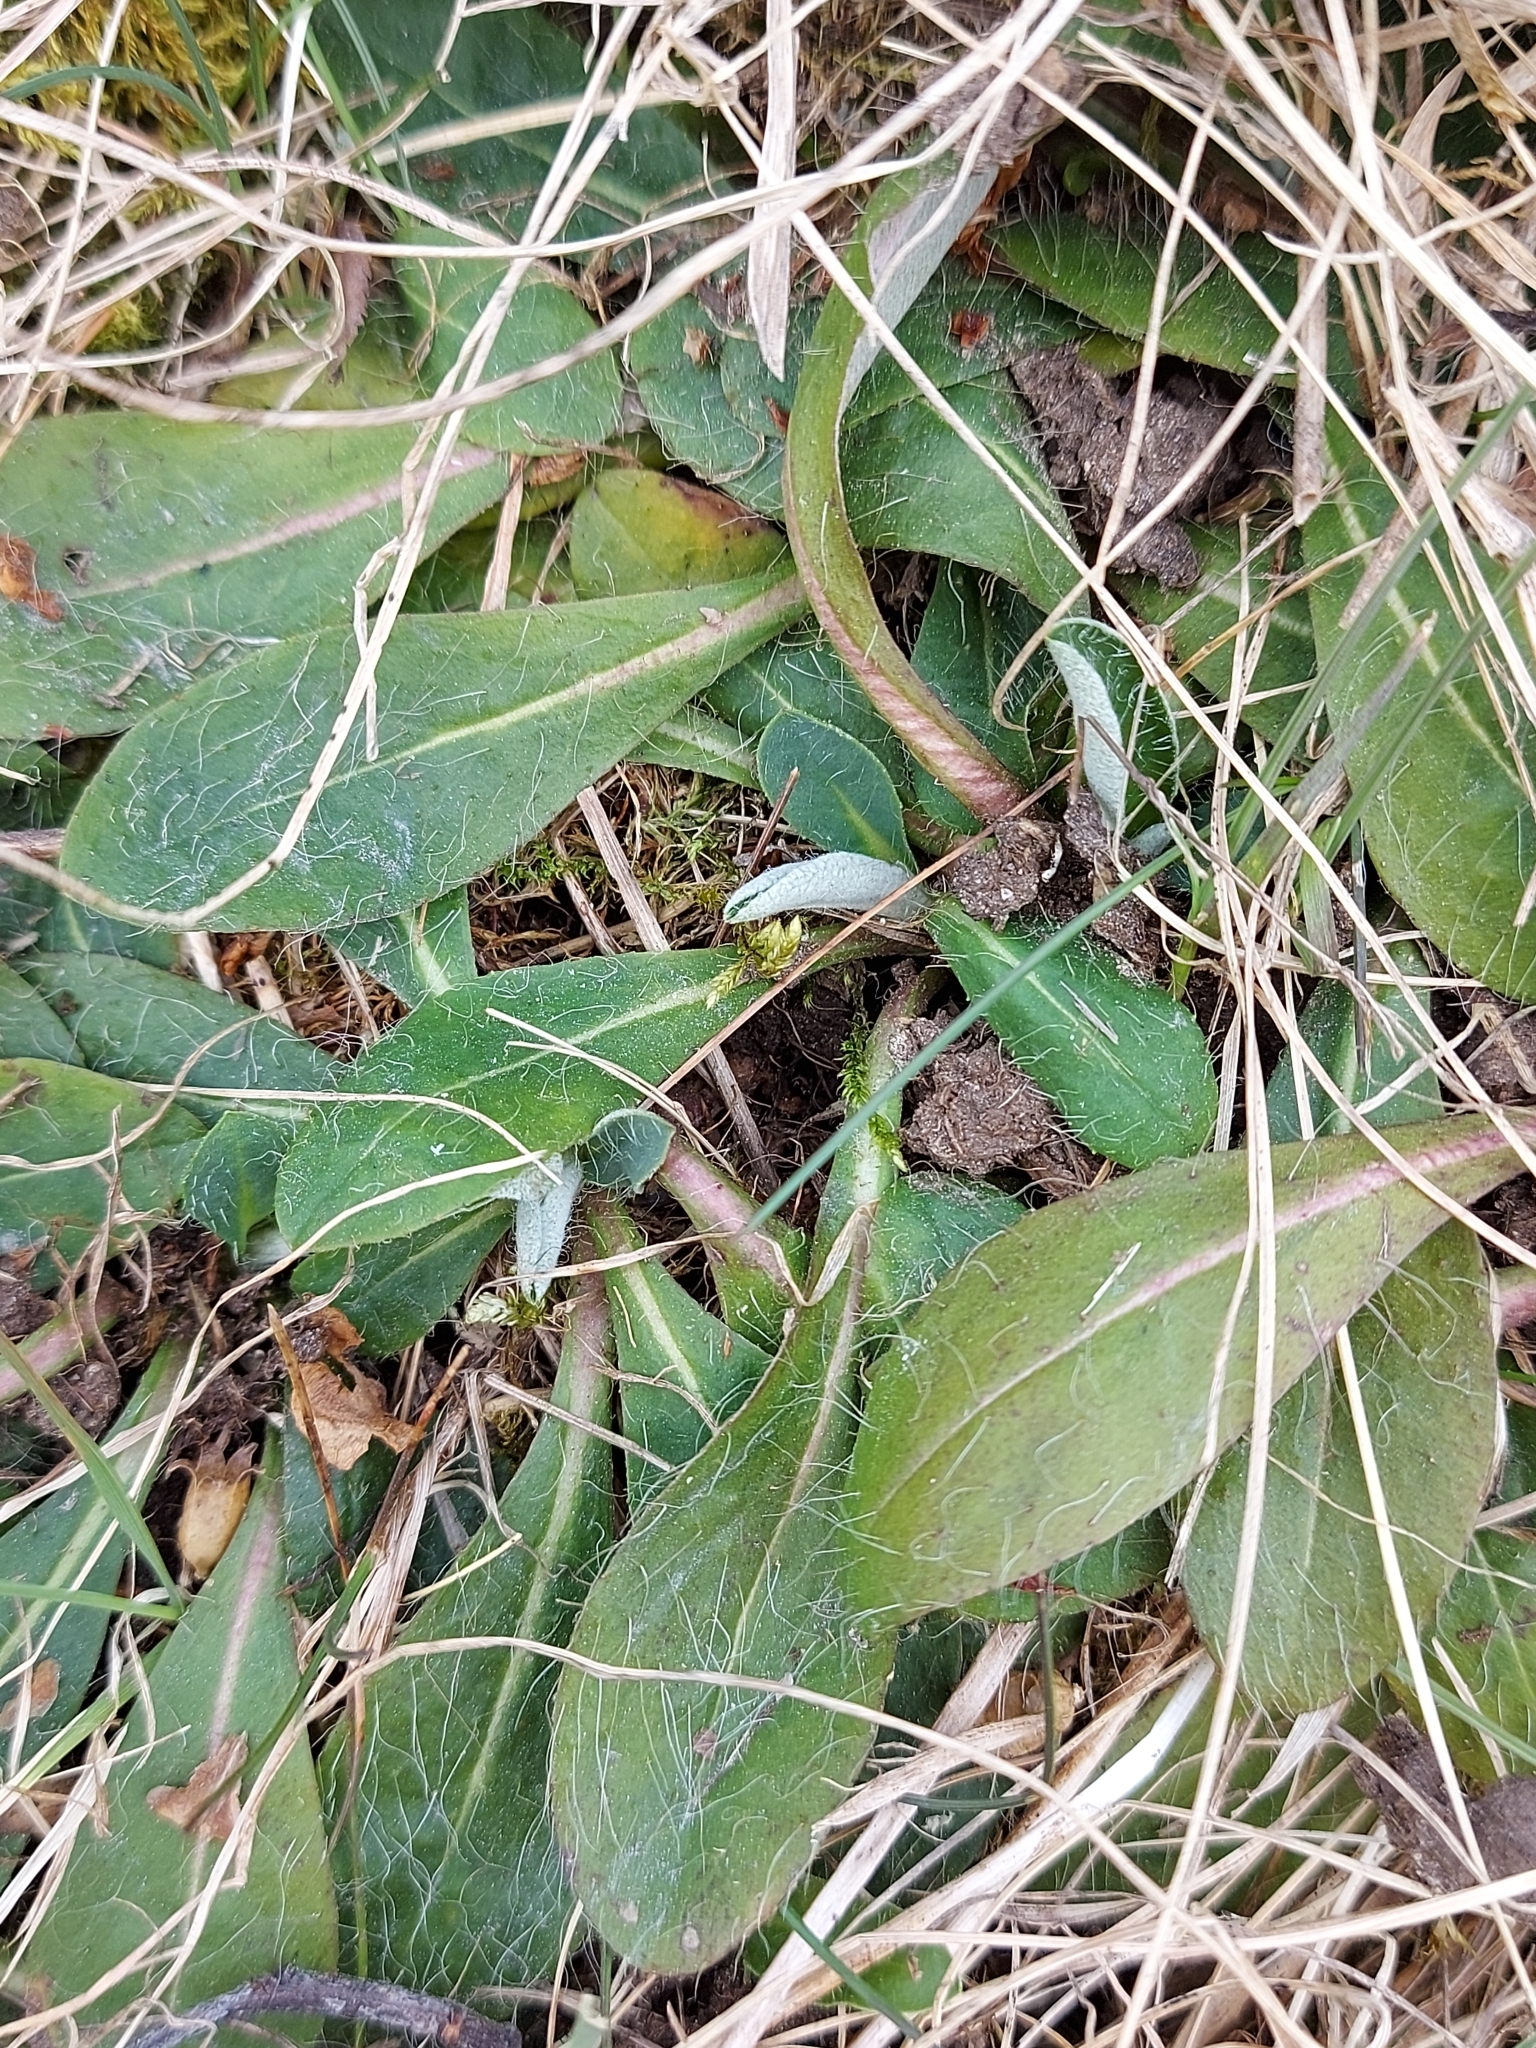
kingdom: Plantae
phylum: Tracheophyta
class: Magnoliopsida
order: Asterales
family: Asteraceae
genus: Pilosella
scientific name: Pilosella officinarum
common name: Mouse-ear hawkweed
